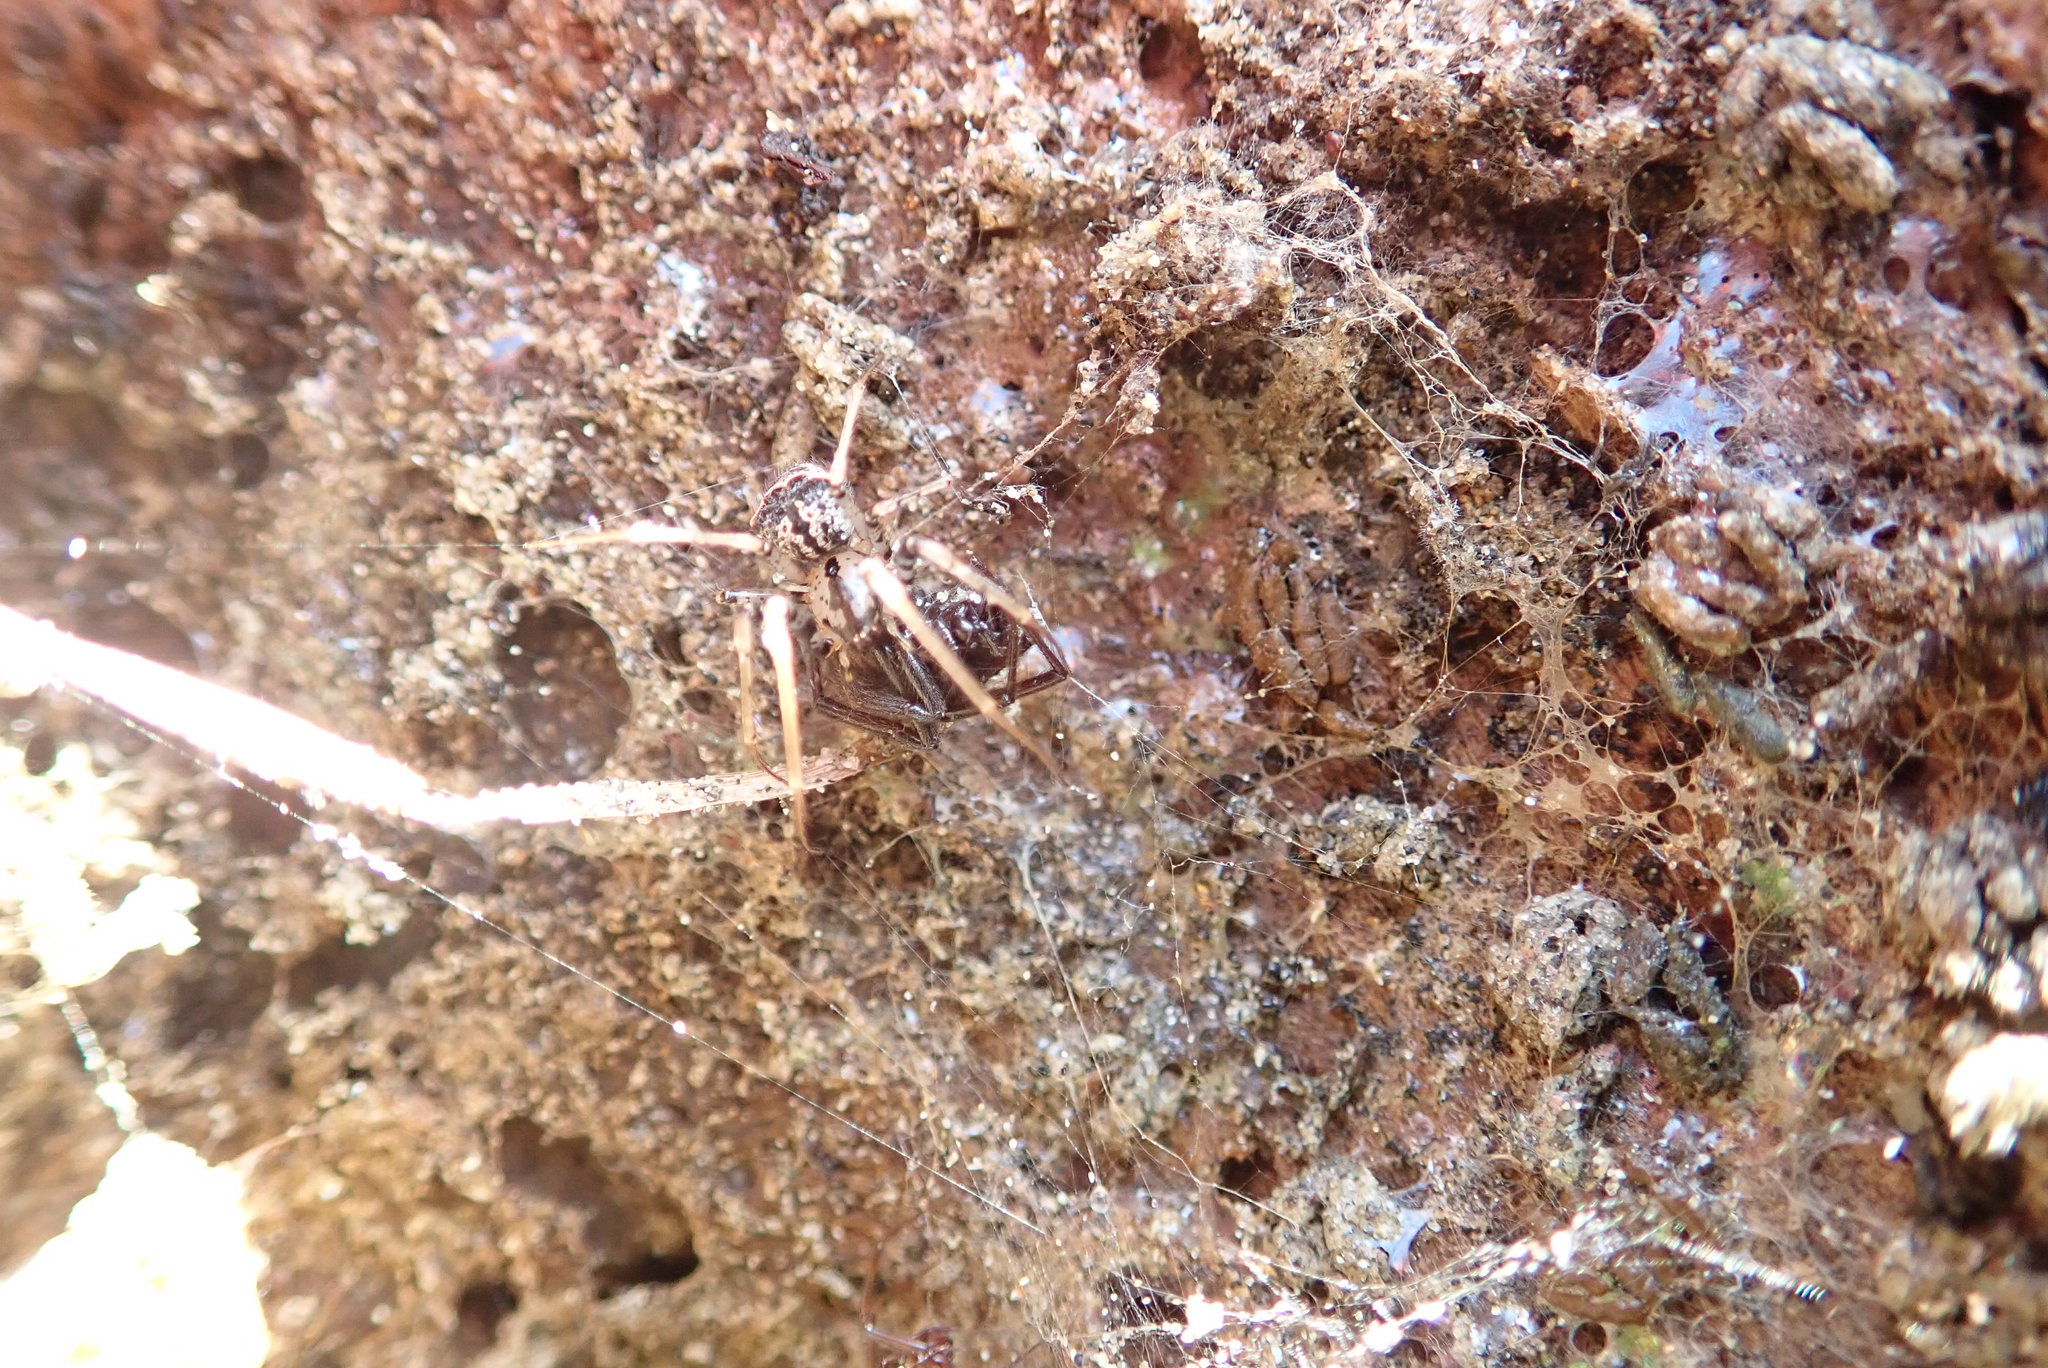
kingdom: Animalia
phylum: Arthropoda
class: Arachnida
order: Araneae
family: Mimetidae
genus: Australomimetus
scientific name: Australomimetus hartleyensis
